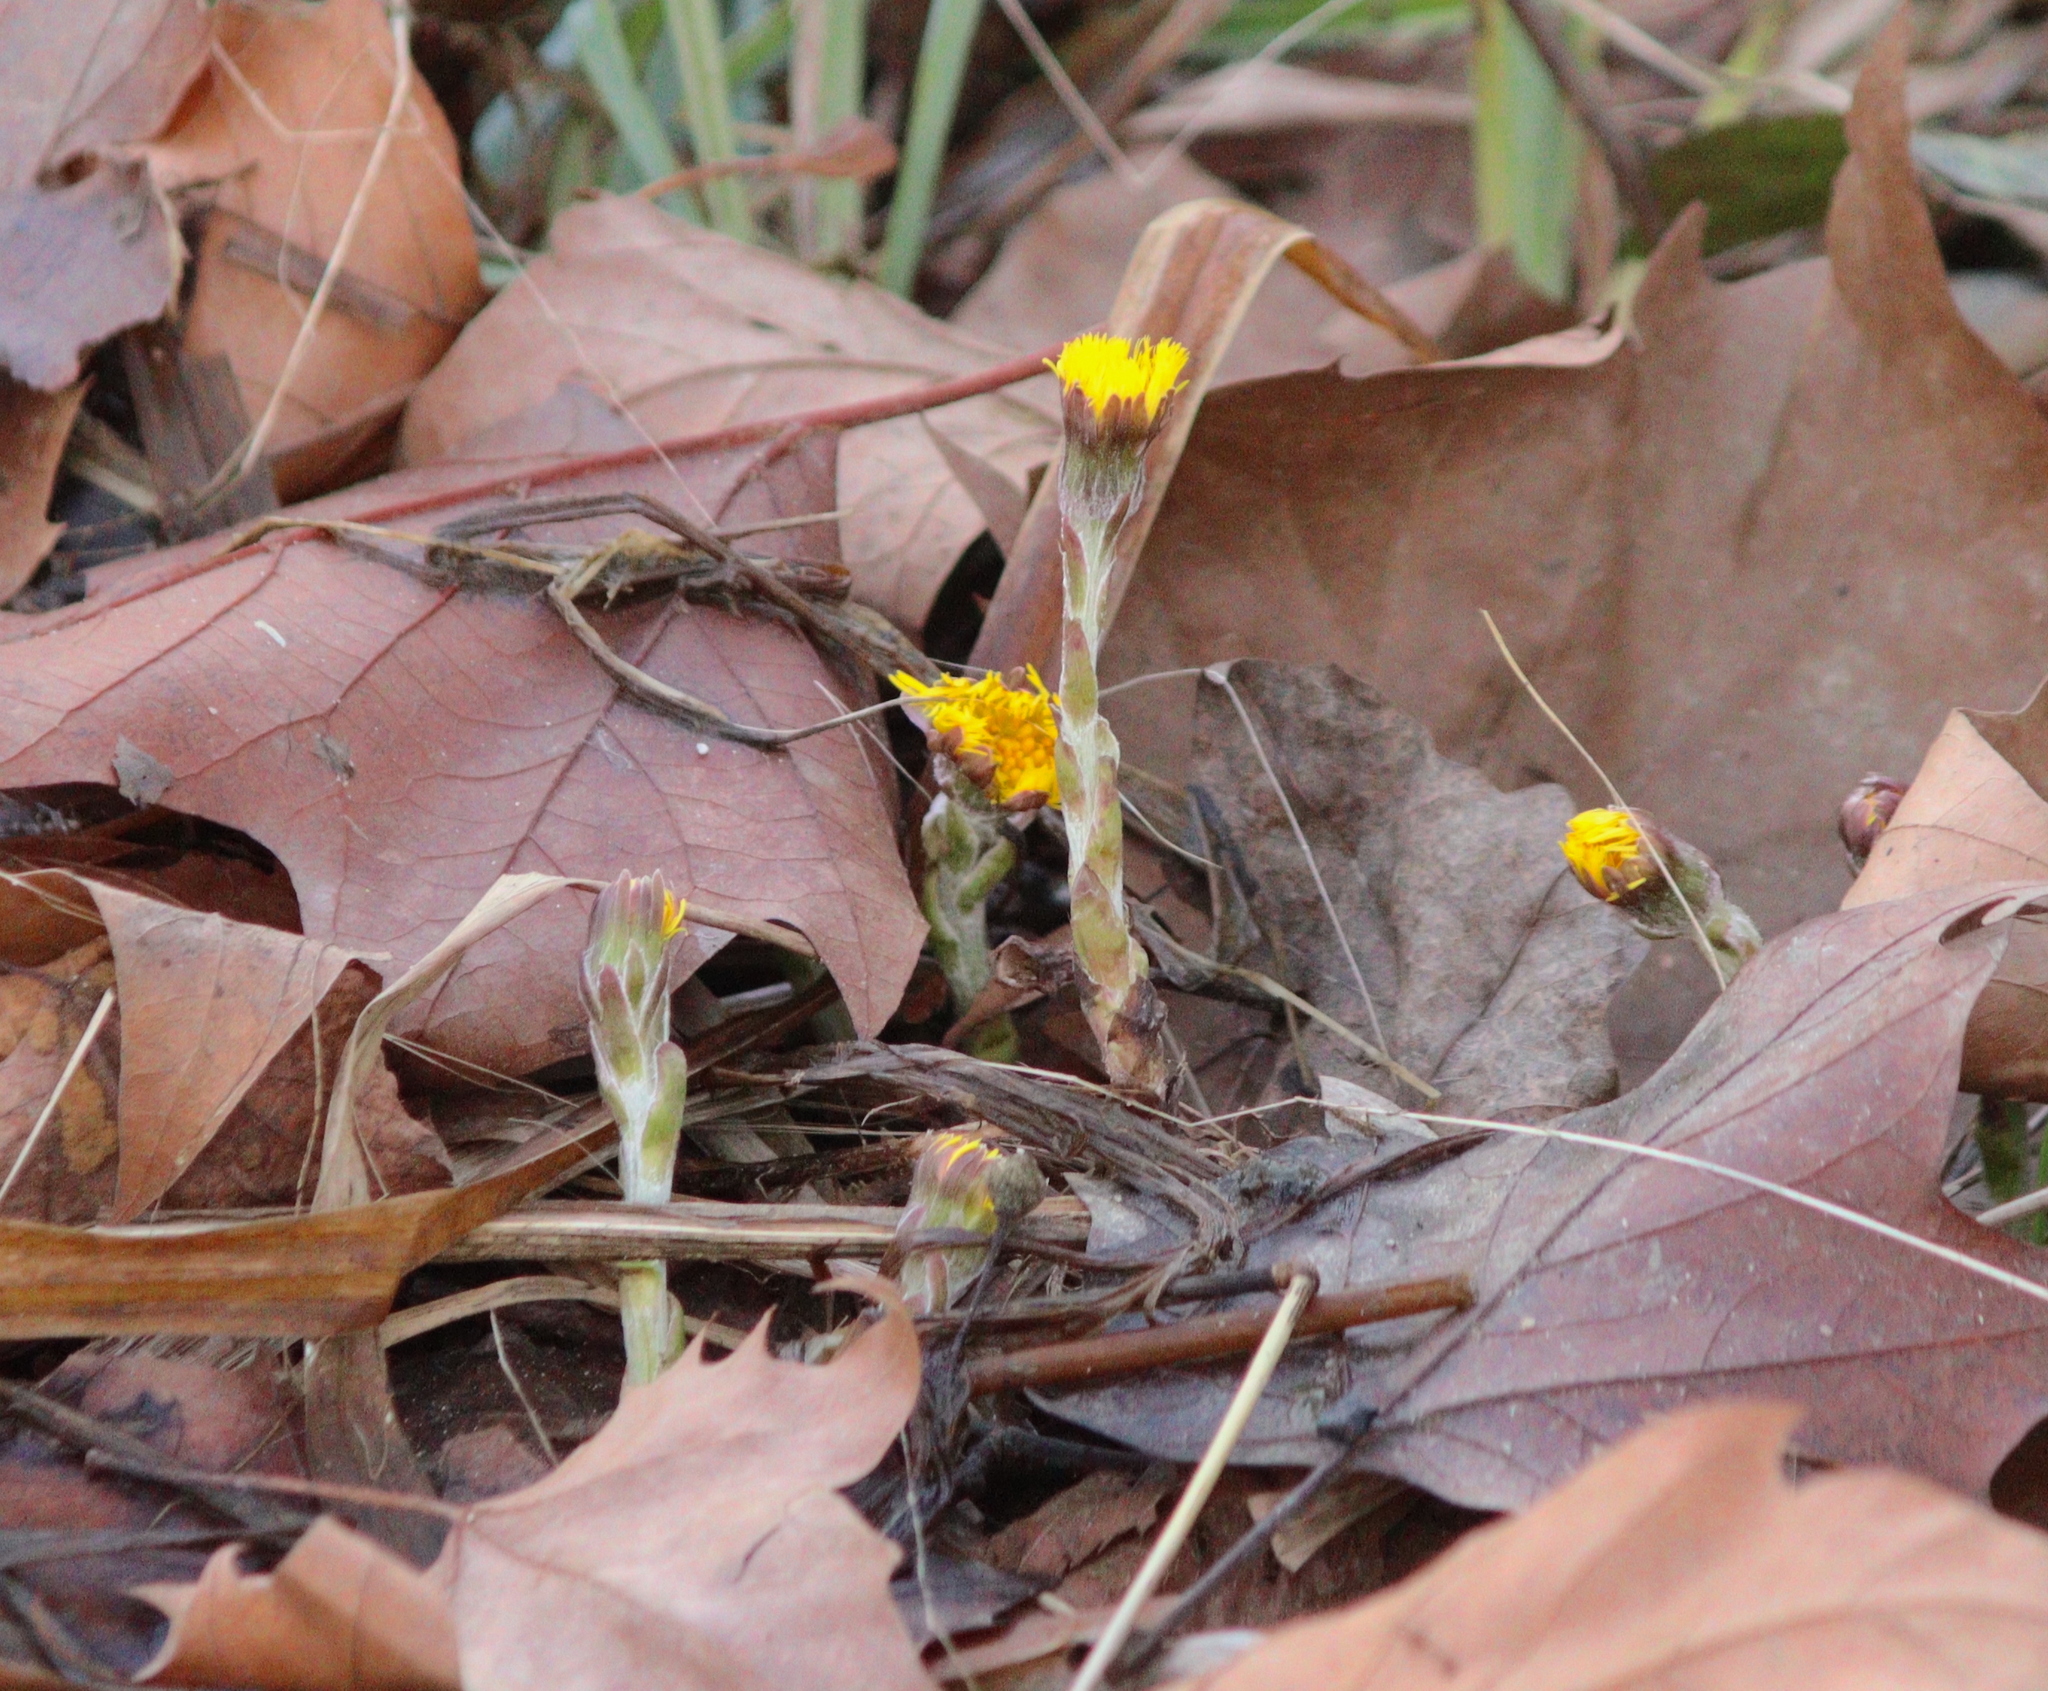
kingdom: Plantae
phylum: Tracheophyta
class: Magnoliopsida
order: Asterales
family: Asteraceae
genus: Tussilago
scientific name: Tussilago farfara
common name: Coltsfoot
